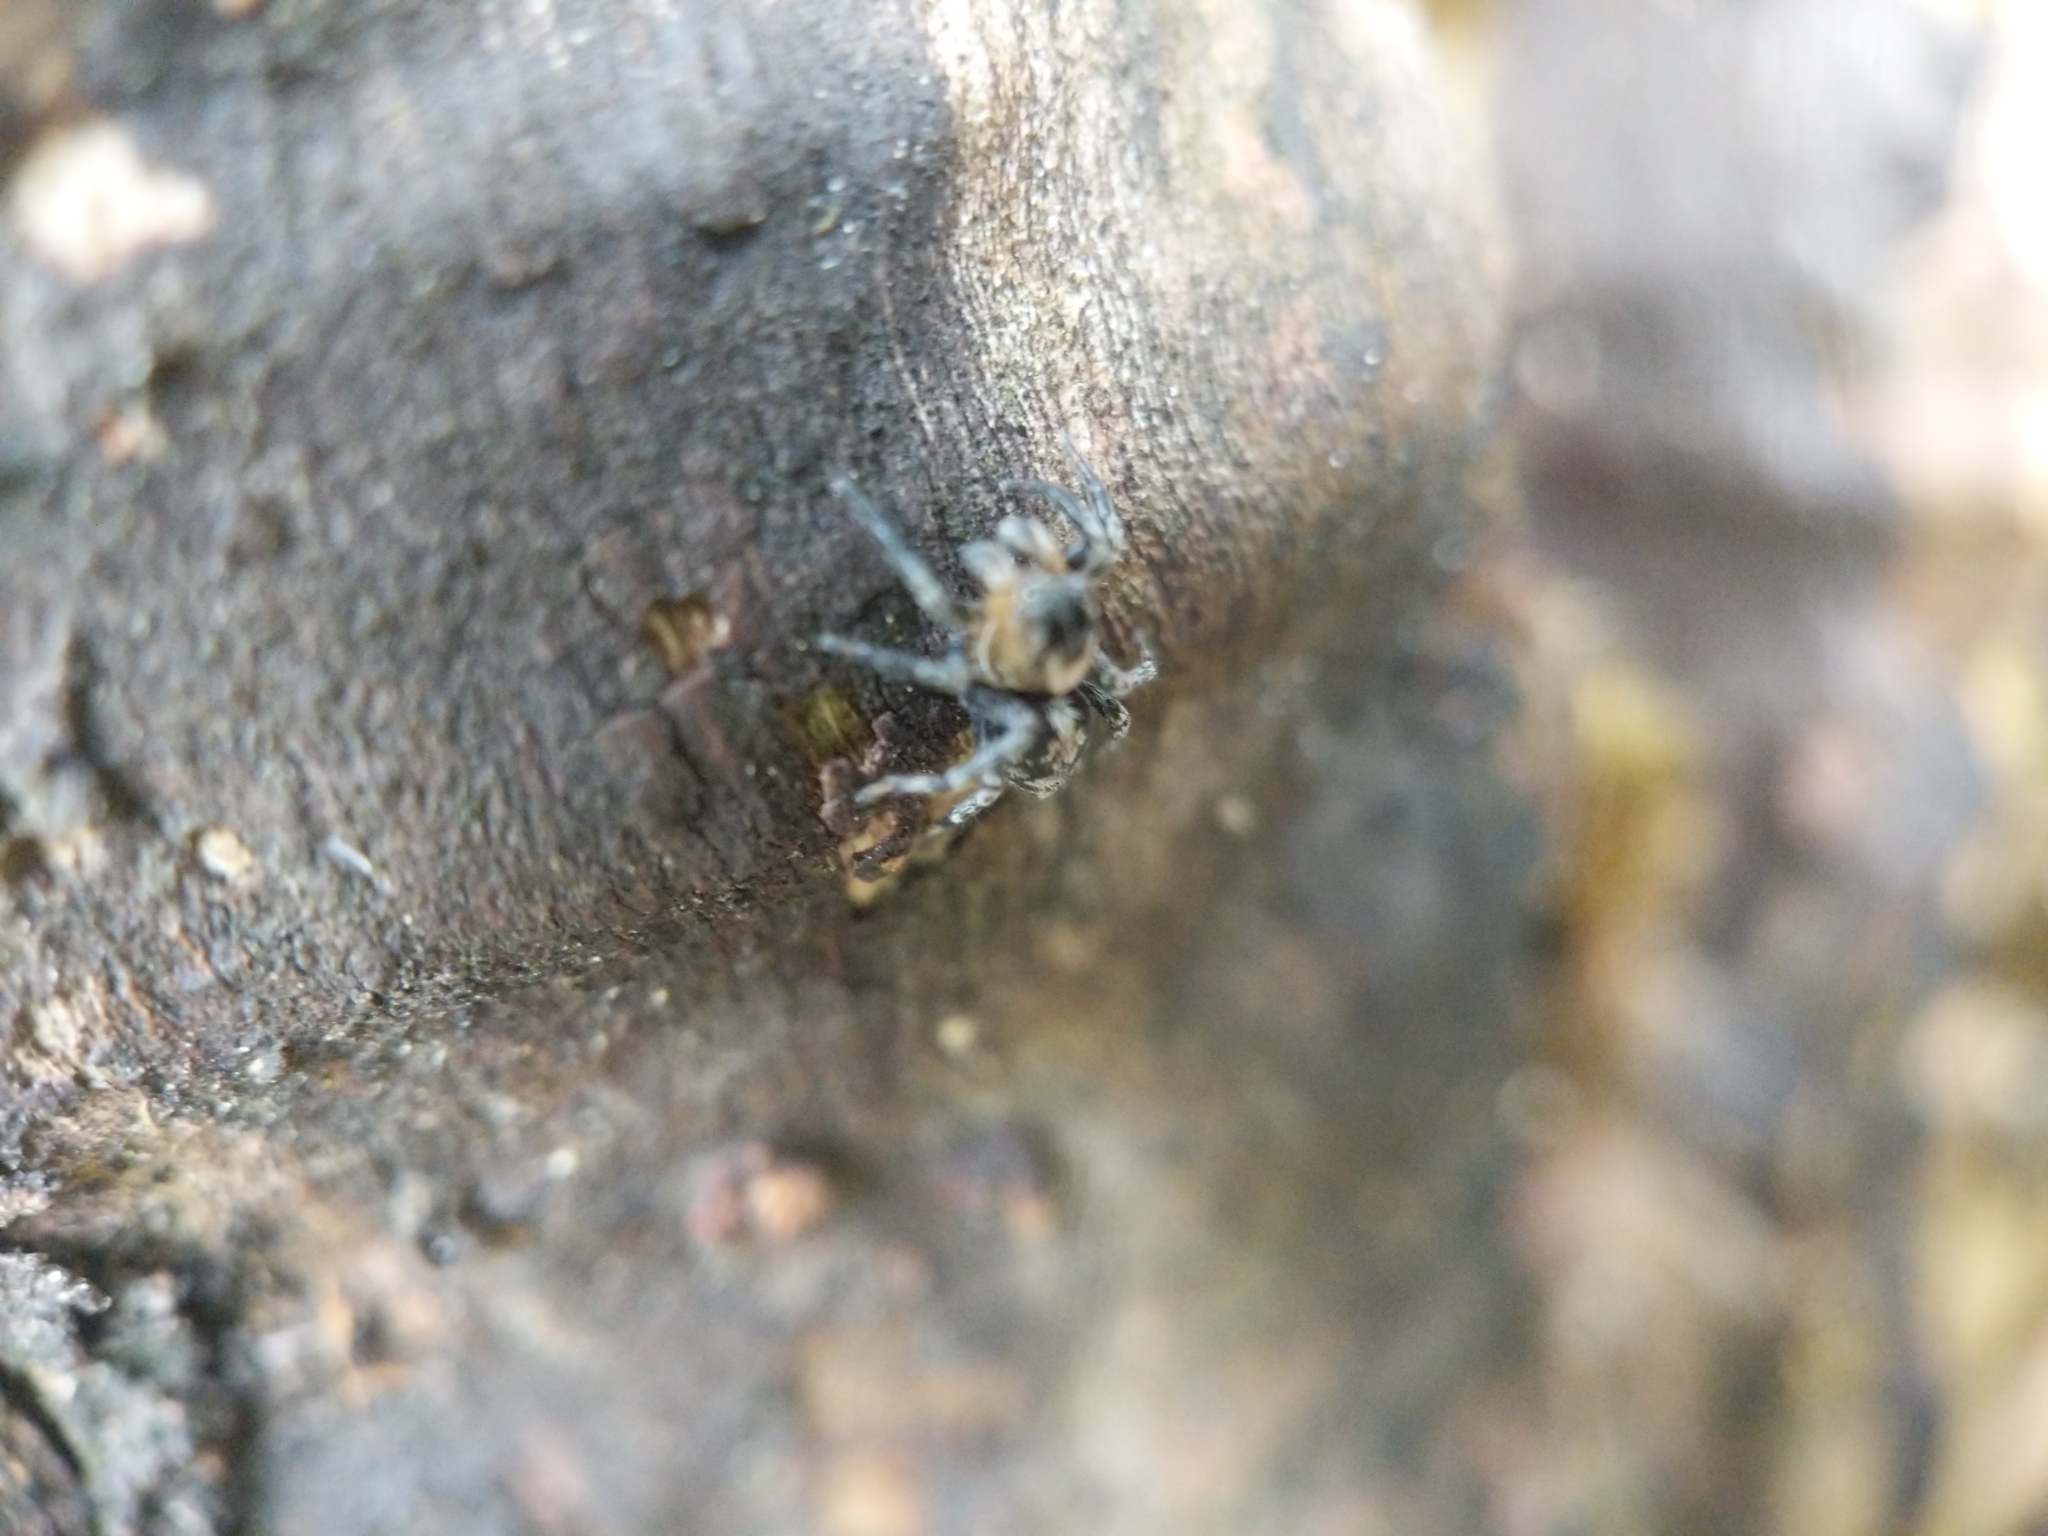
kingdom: Animalia
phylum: Arthropoda
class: Arachnida
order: Araneae
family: Salticidae
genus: Naphrys
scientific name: Naphrys pulex
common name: Flea jumping spider
